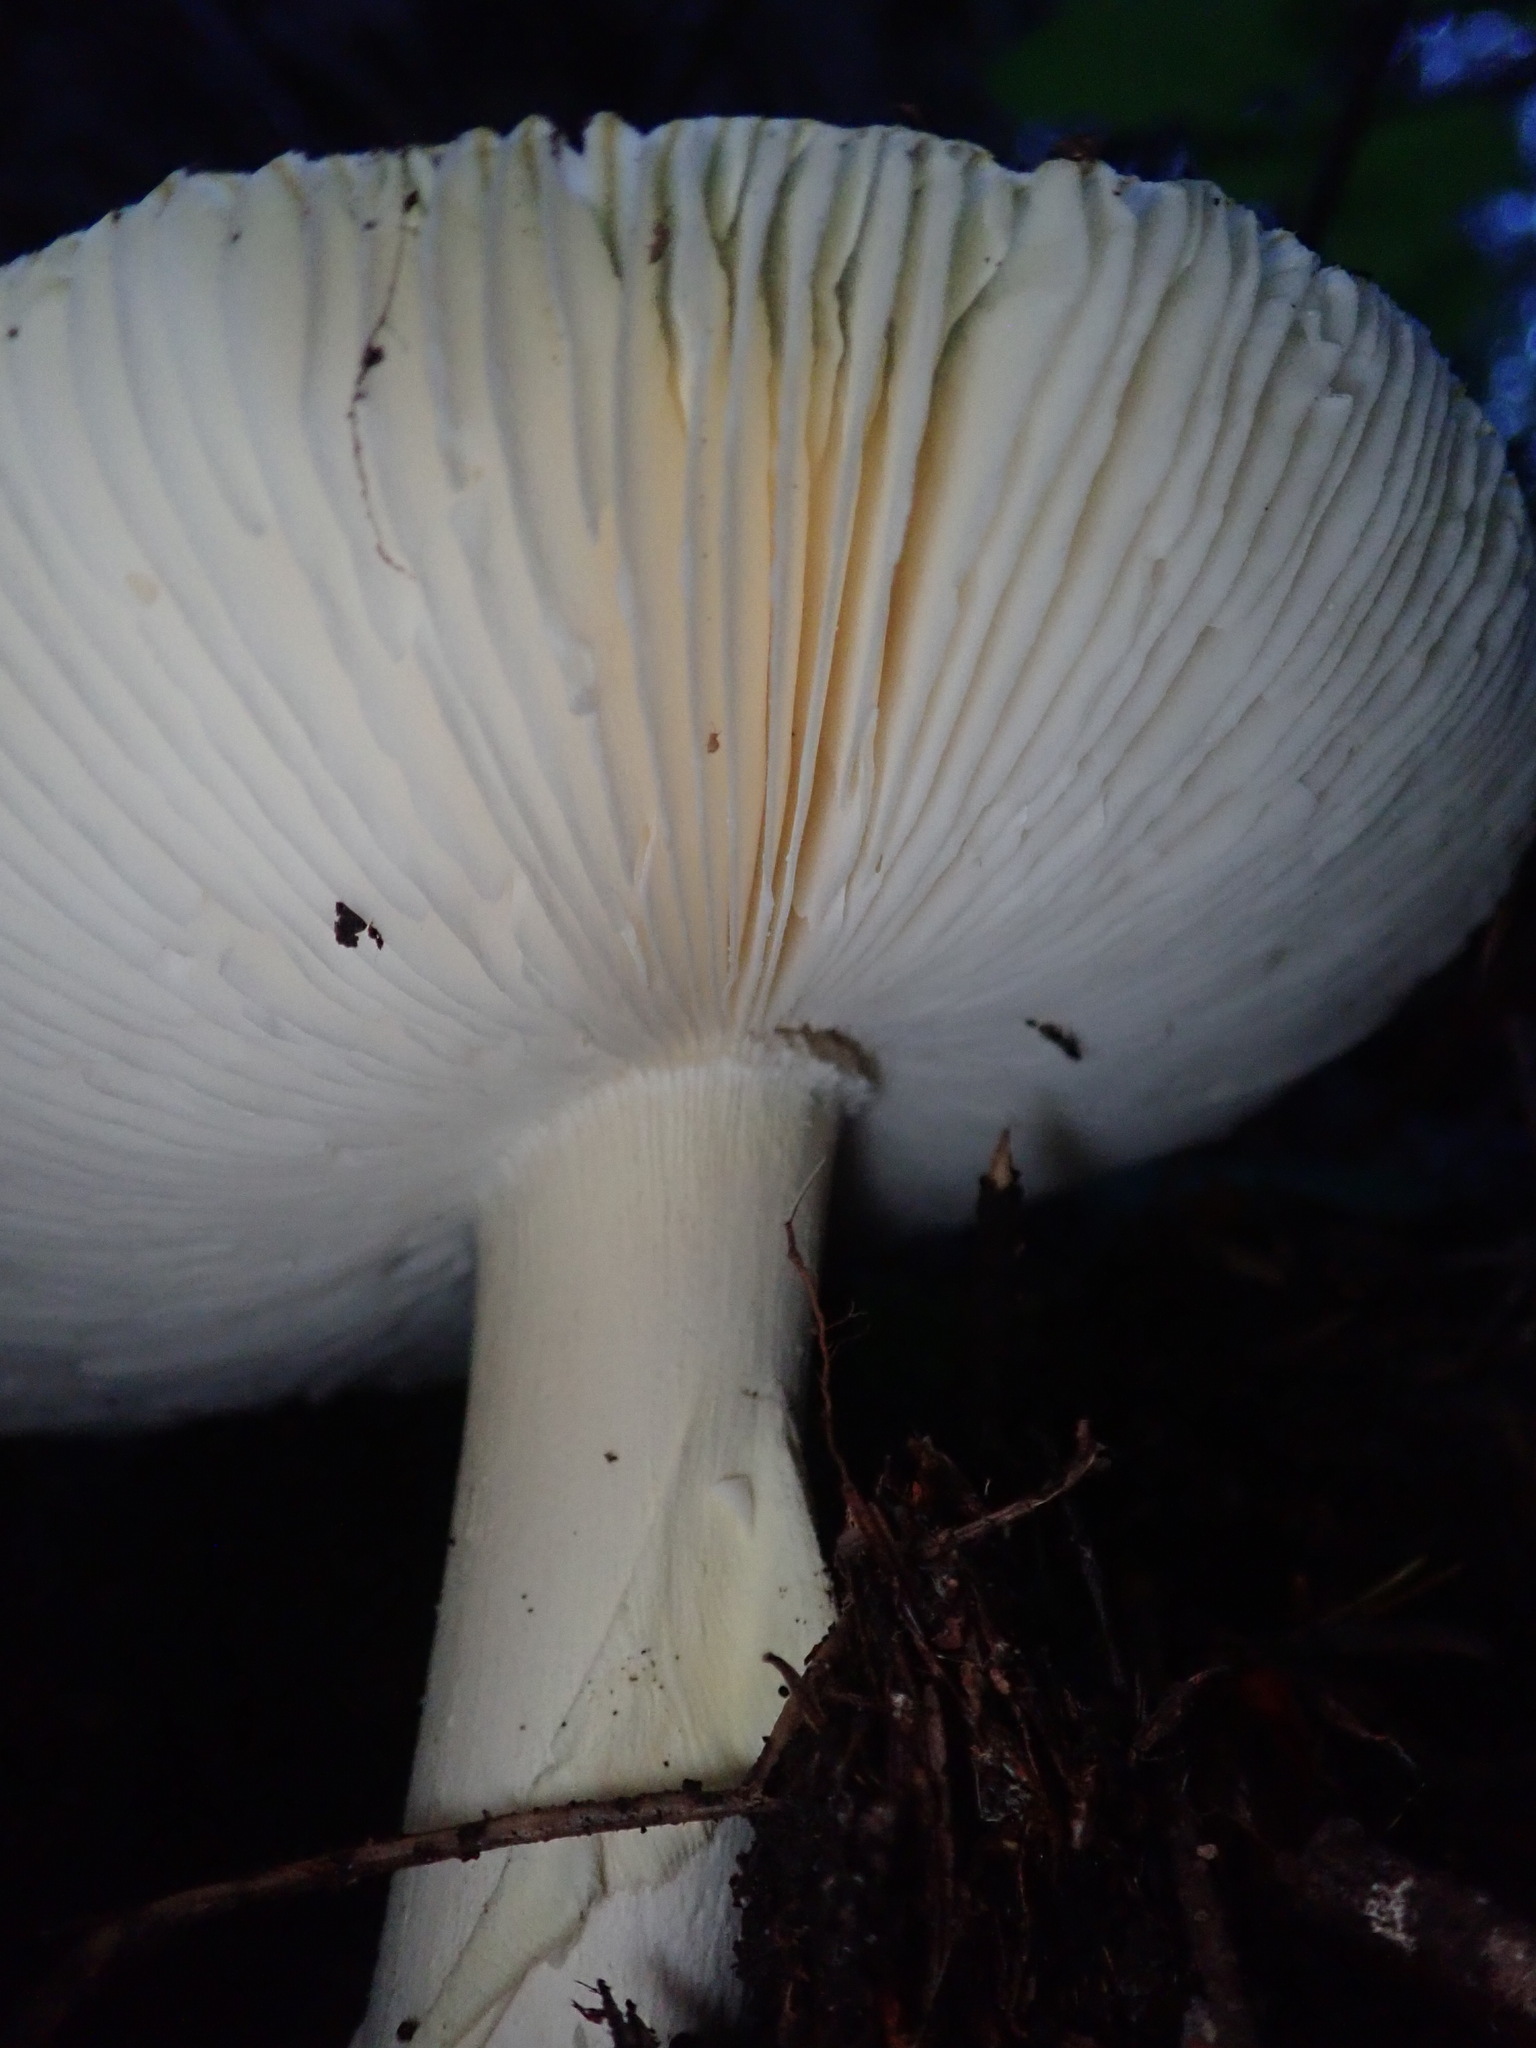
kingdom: Fungi
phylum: Basidiomycota
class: Agaricomycetes
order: Agaricales
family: Amanitaceae
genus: Amanita
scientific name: Amanita calyptroderma
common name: Coccora
